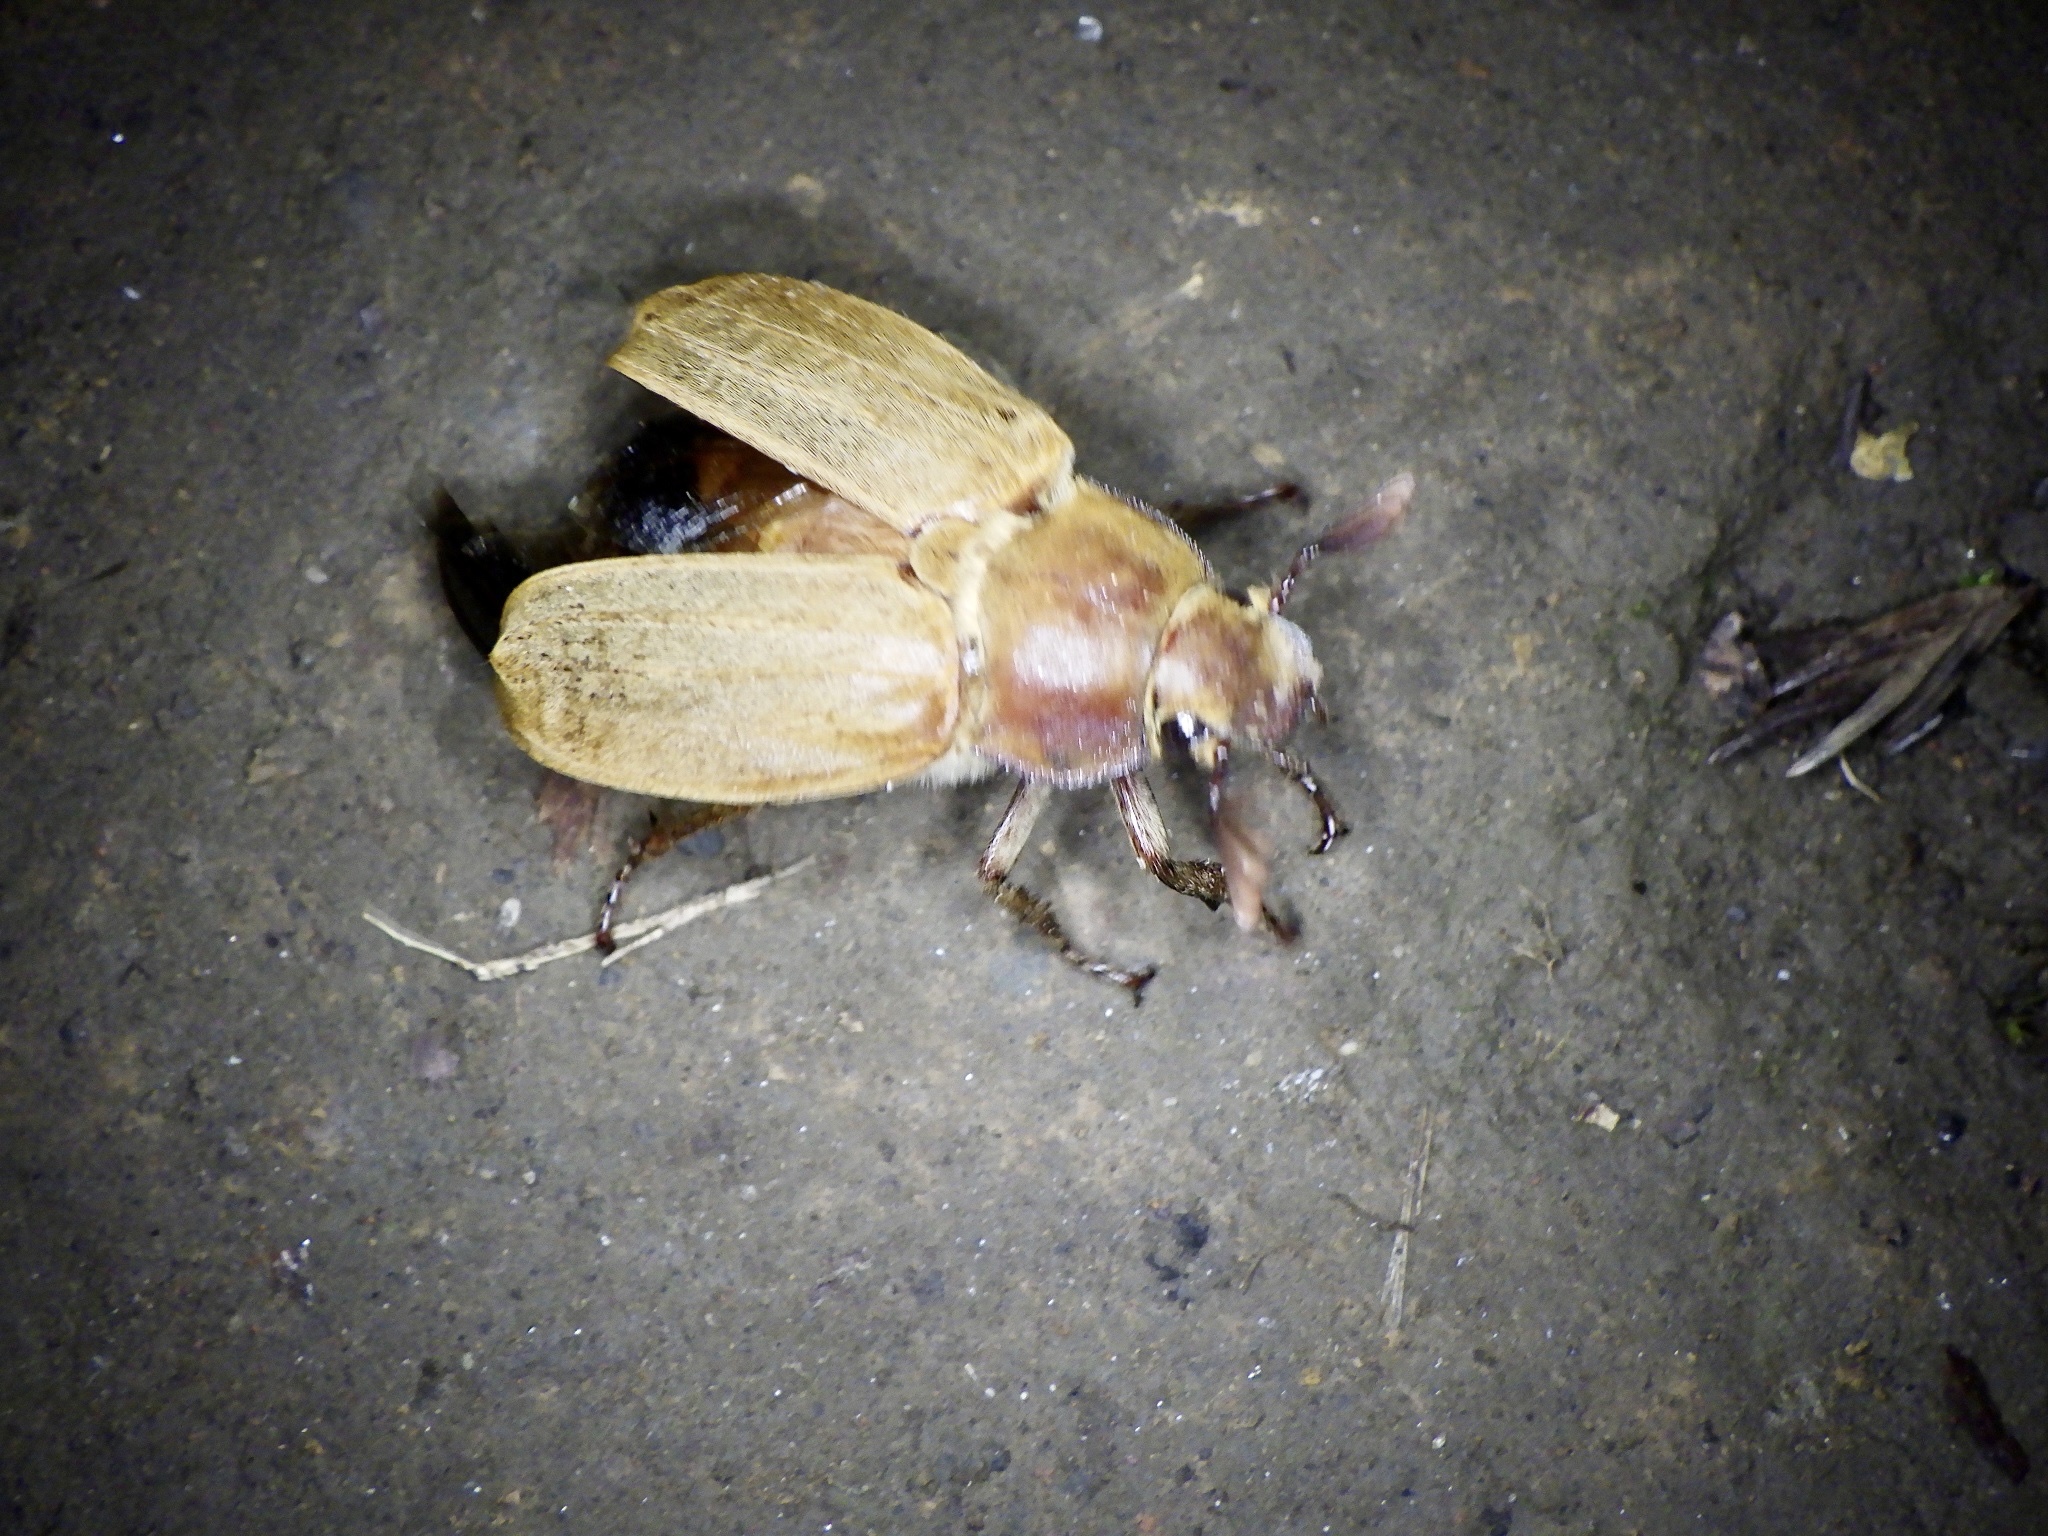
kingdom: Animalia
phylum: Arthropoda
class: Insecta
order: Coleoptera
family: Scarabaeidae
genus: Melolontha
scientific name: Melolontha frater
